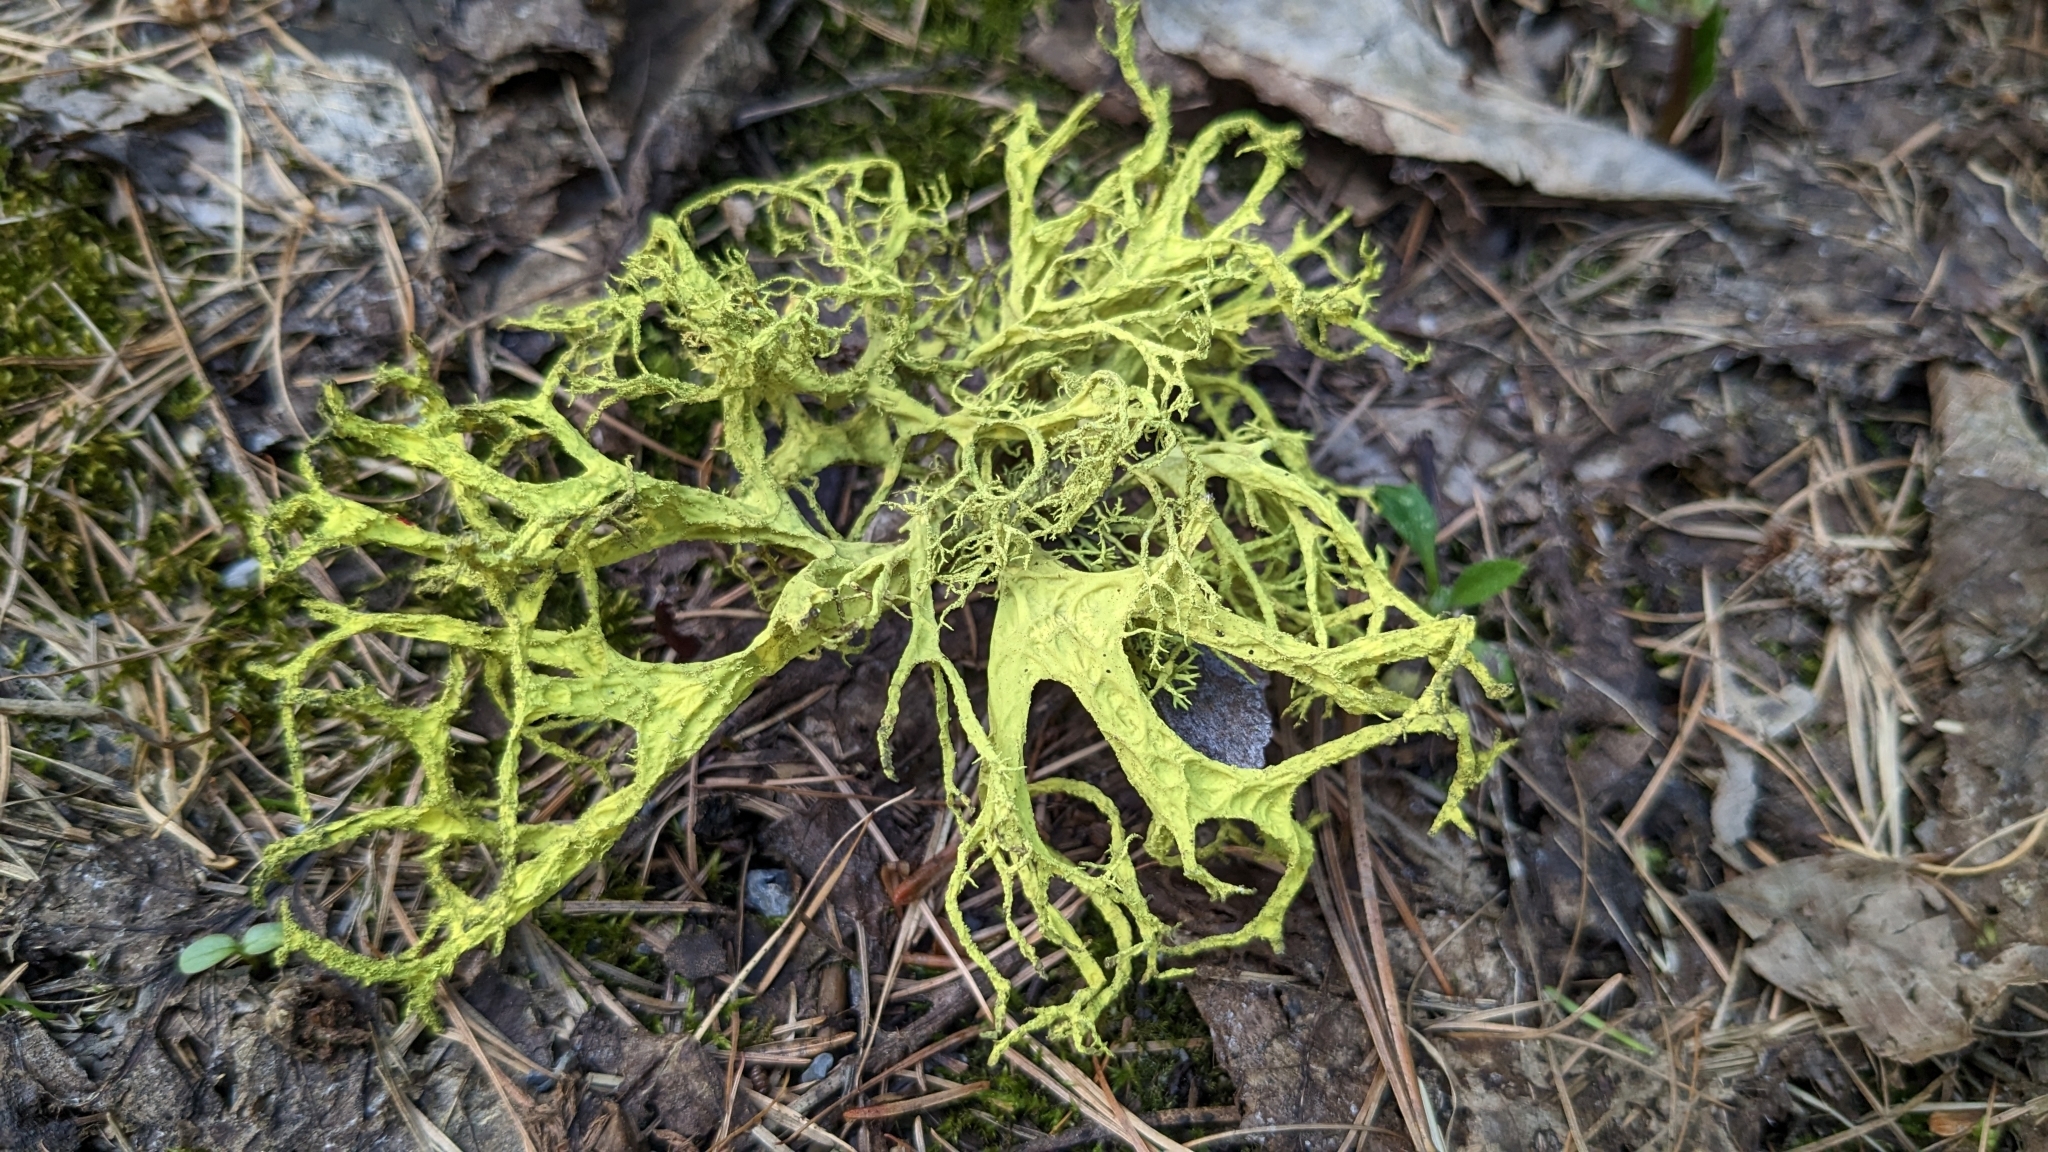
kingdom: Fungi
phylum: Ascomycota
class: Lecanoromycetes
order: Lecanorales
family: Parmeliaceae
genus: Letharia
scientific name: Letharia vulpina
